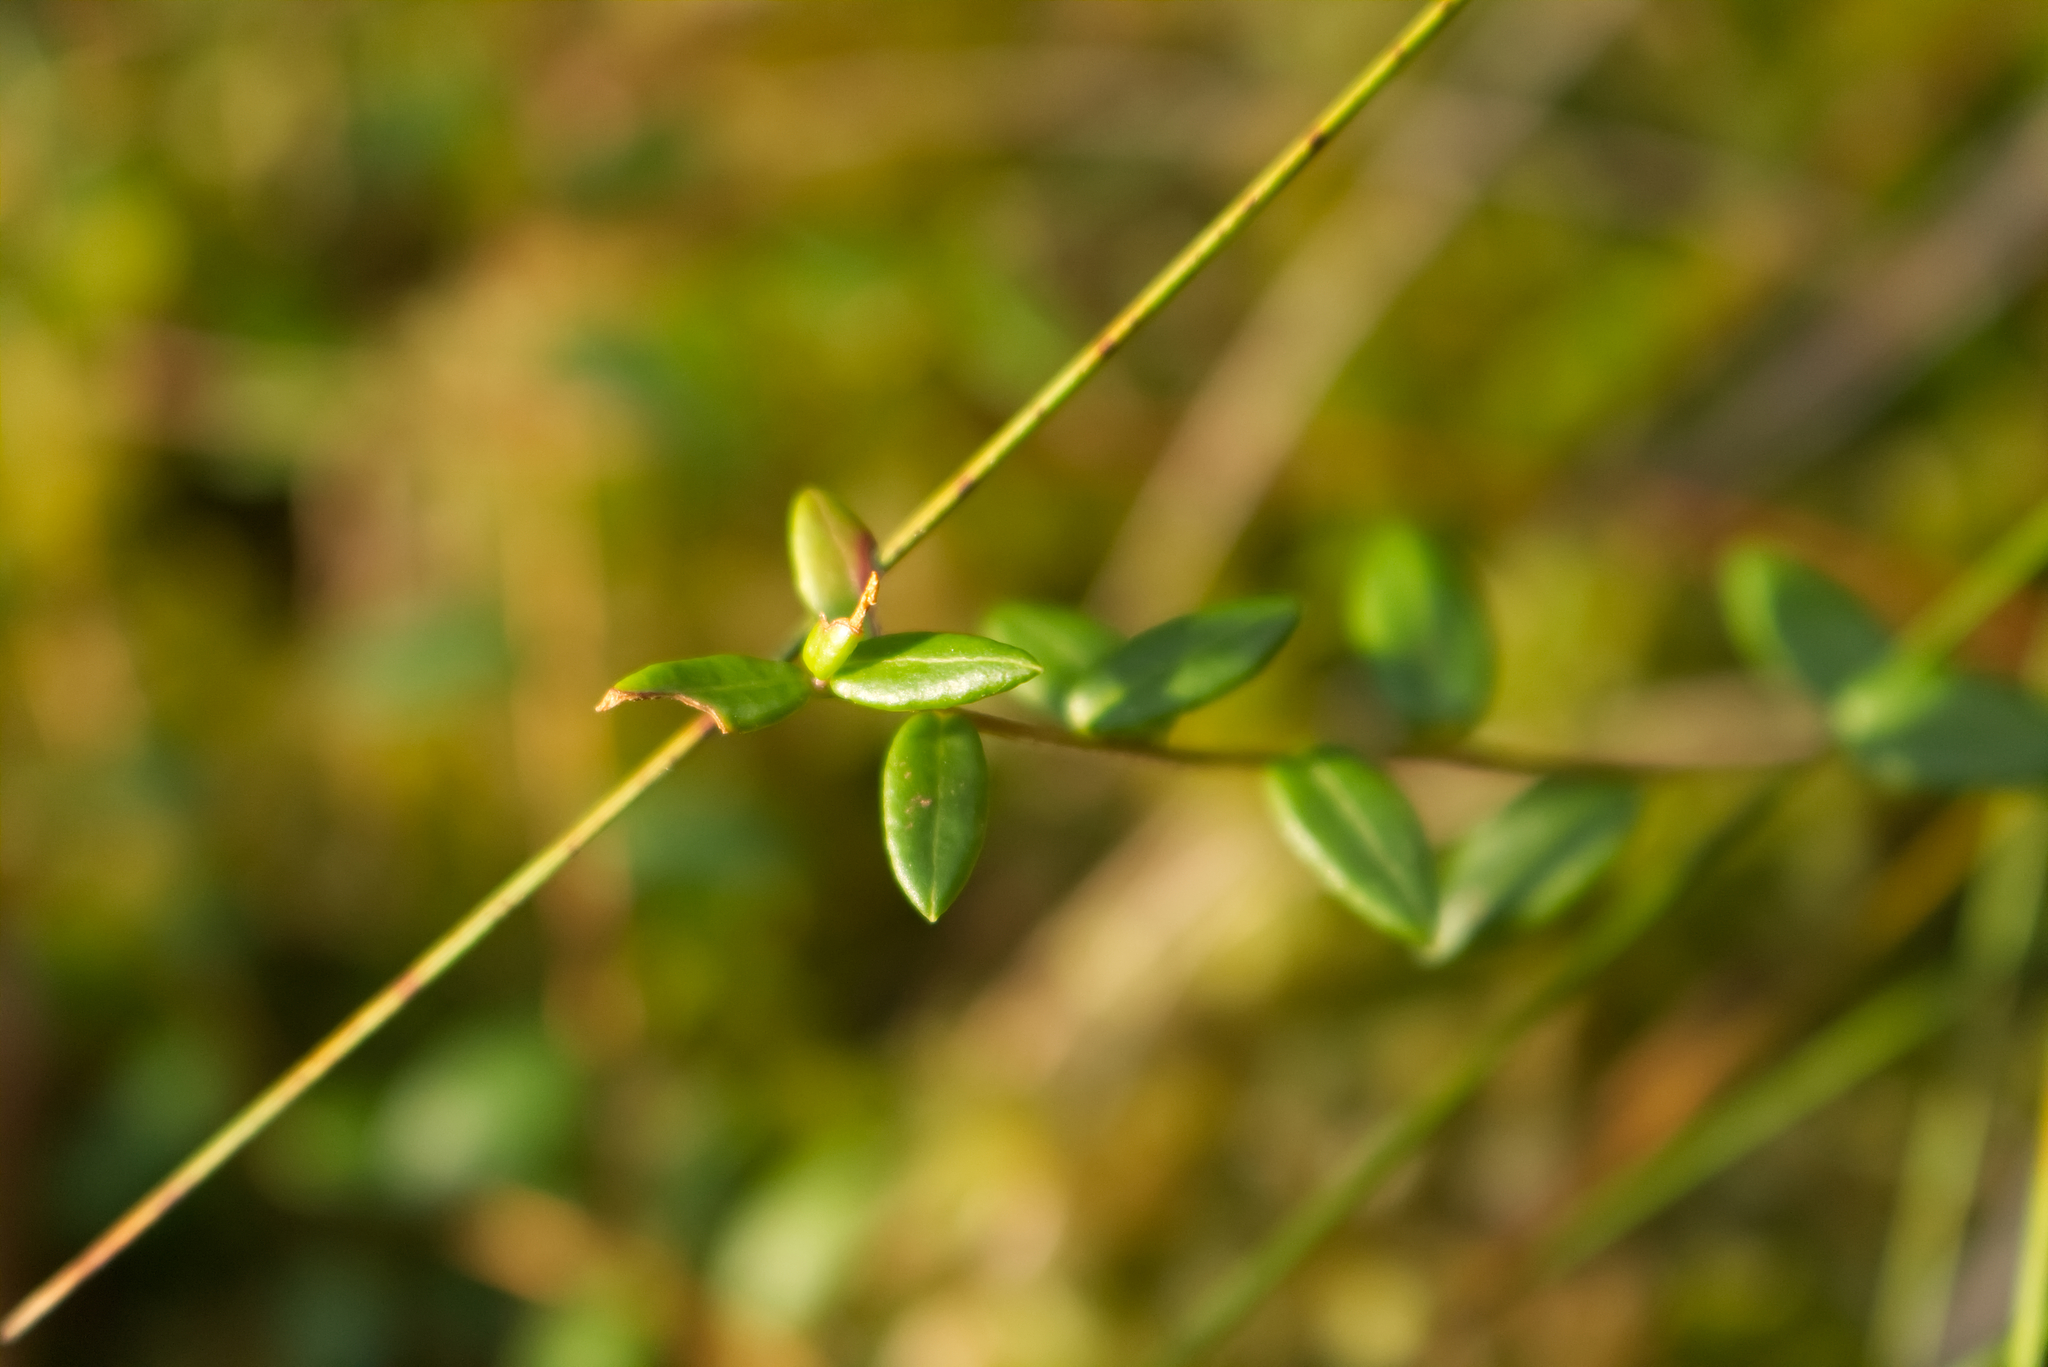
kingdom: Plantae
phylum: Tracheophyta
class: Magnoliopsida
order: Ericales
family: Ericaceae
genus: Vaccinium
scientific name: Vaccinium oxycoccos
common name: Cranberry
